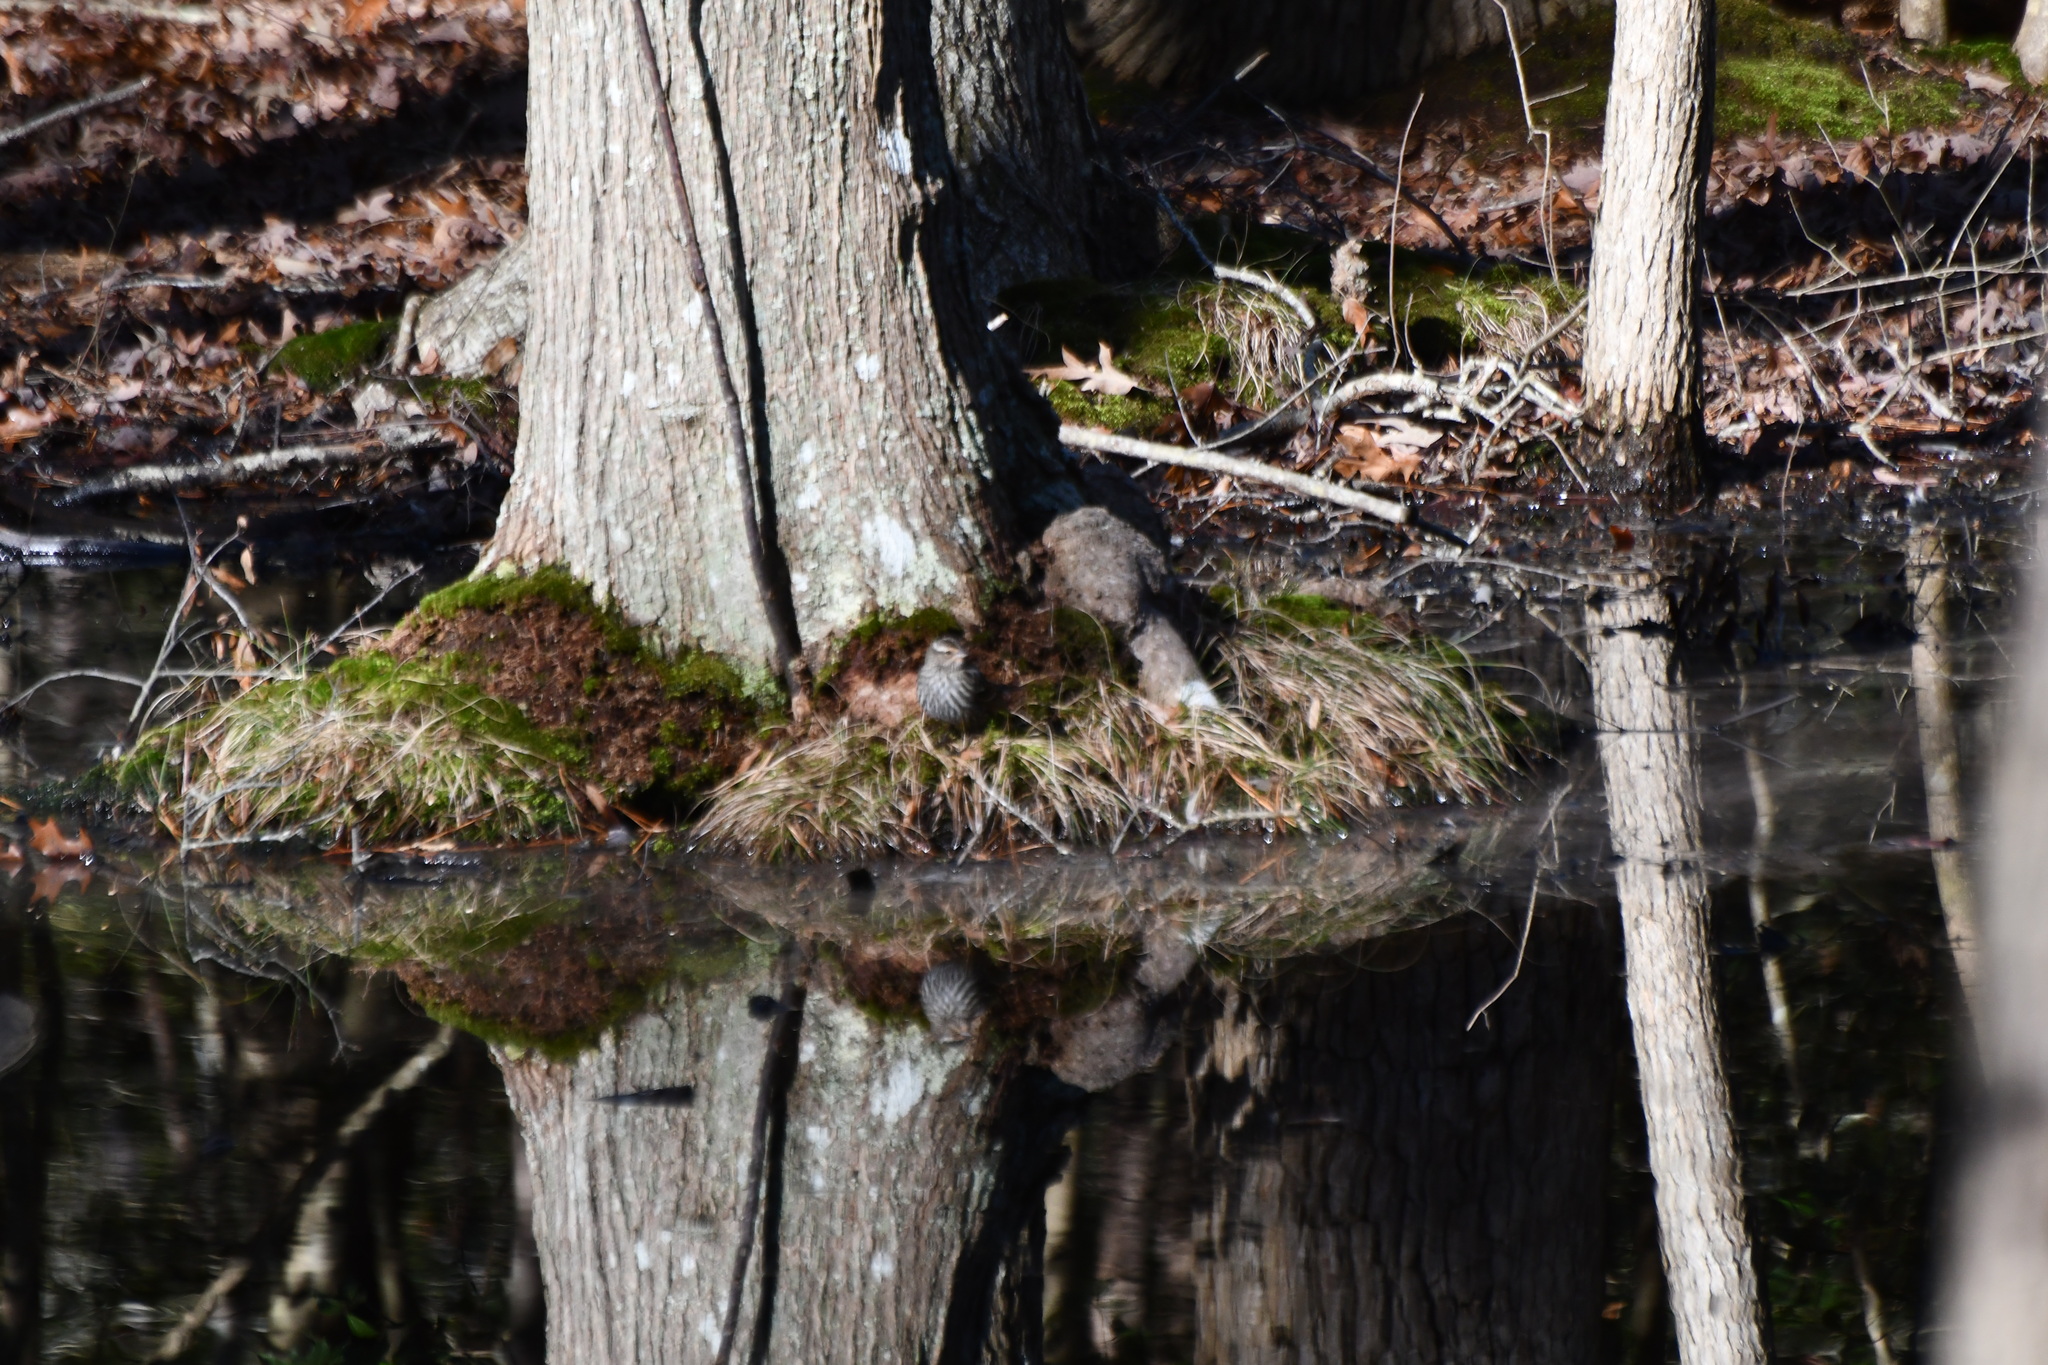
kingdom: Animalia
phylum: Chordata
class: Aves
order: Passeriformes
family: Icteridae
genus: Agelaius
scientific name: Agelaius phoeniceus
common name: Red-winged blackbird
